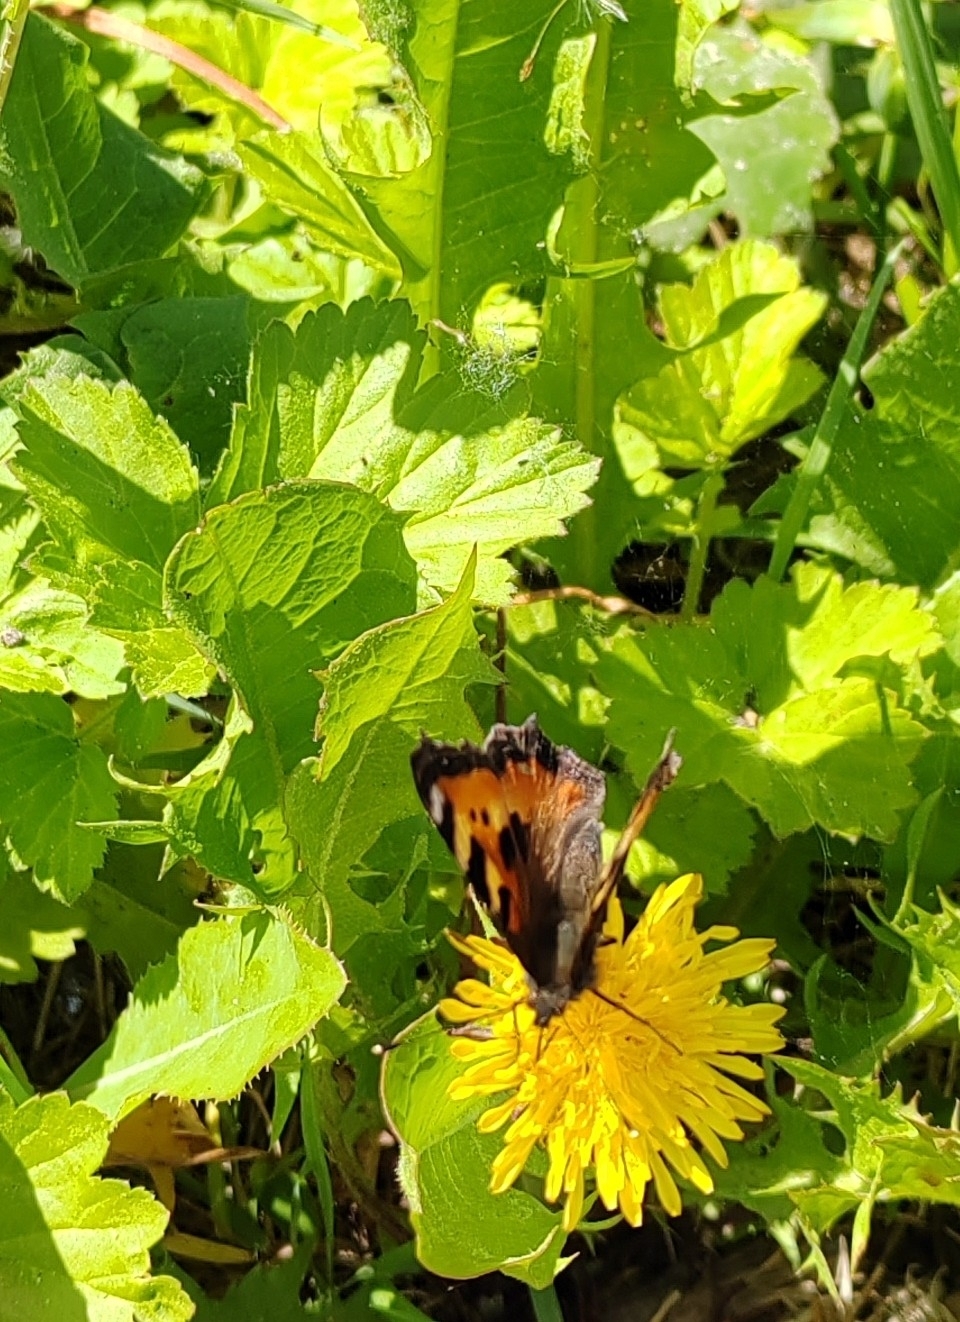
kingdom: Animalia
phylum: Arthropoda
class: Insecta
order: Lepidoptera
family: Nymphalidae
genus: Aglais
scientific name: Aglais urticae
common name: Small tortoiseshell
